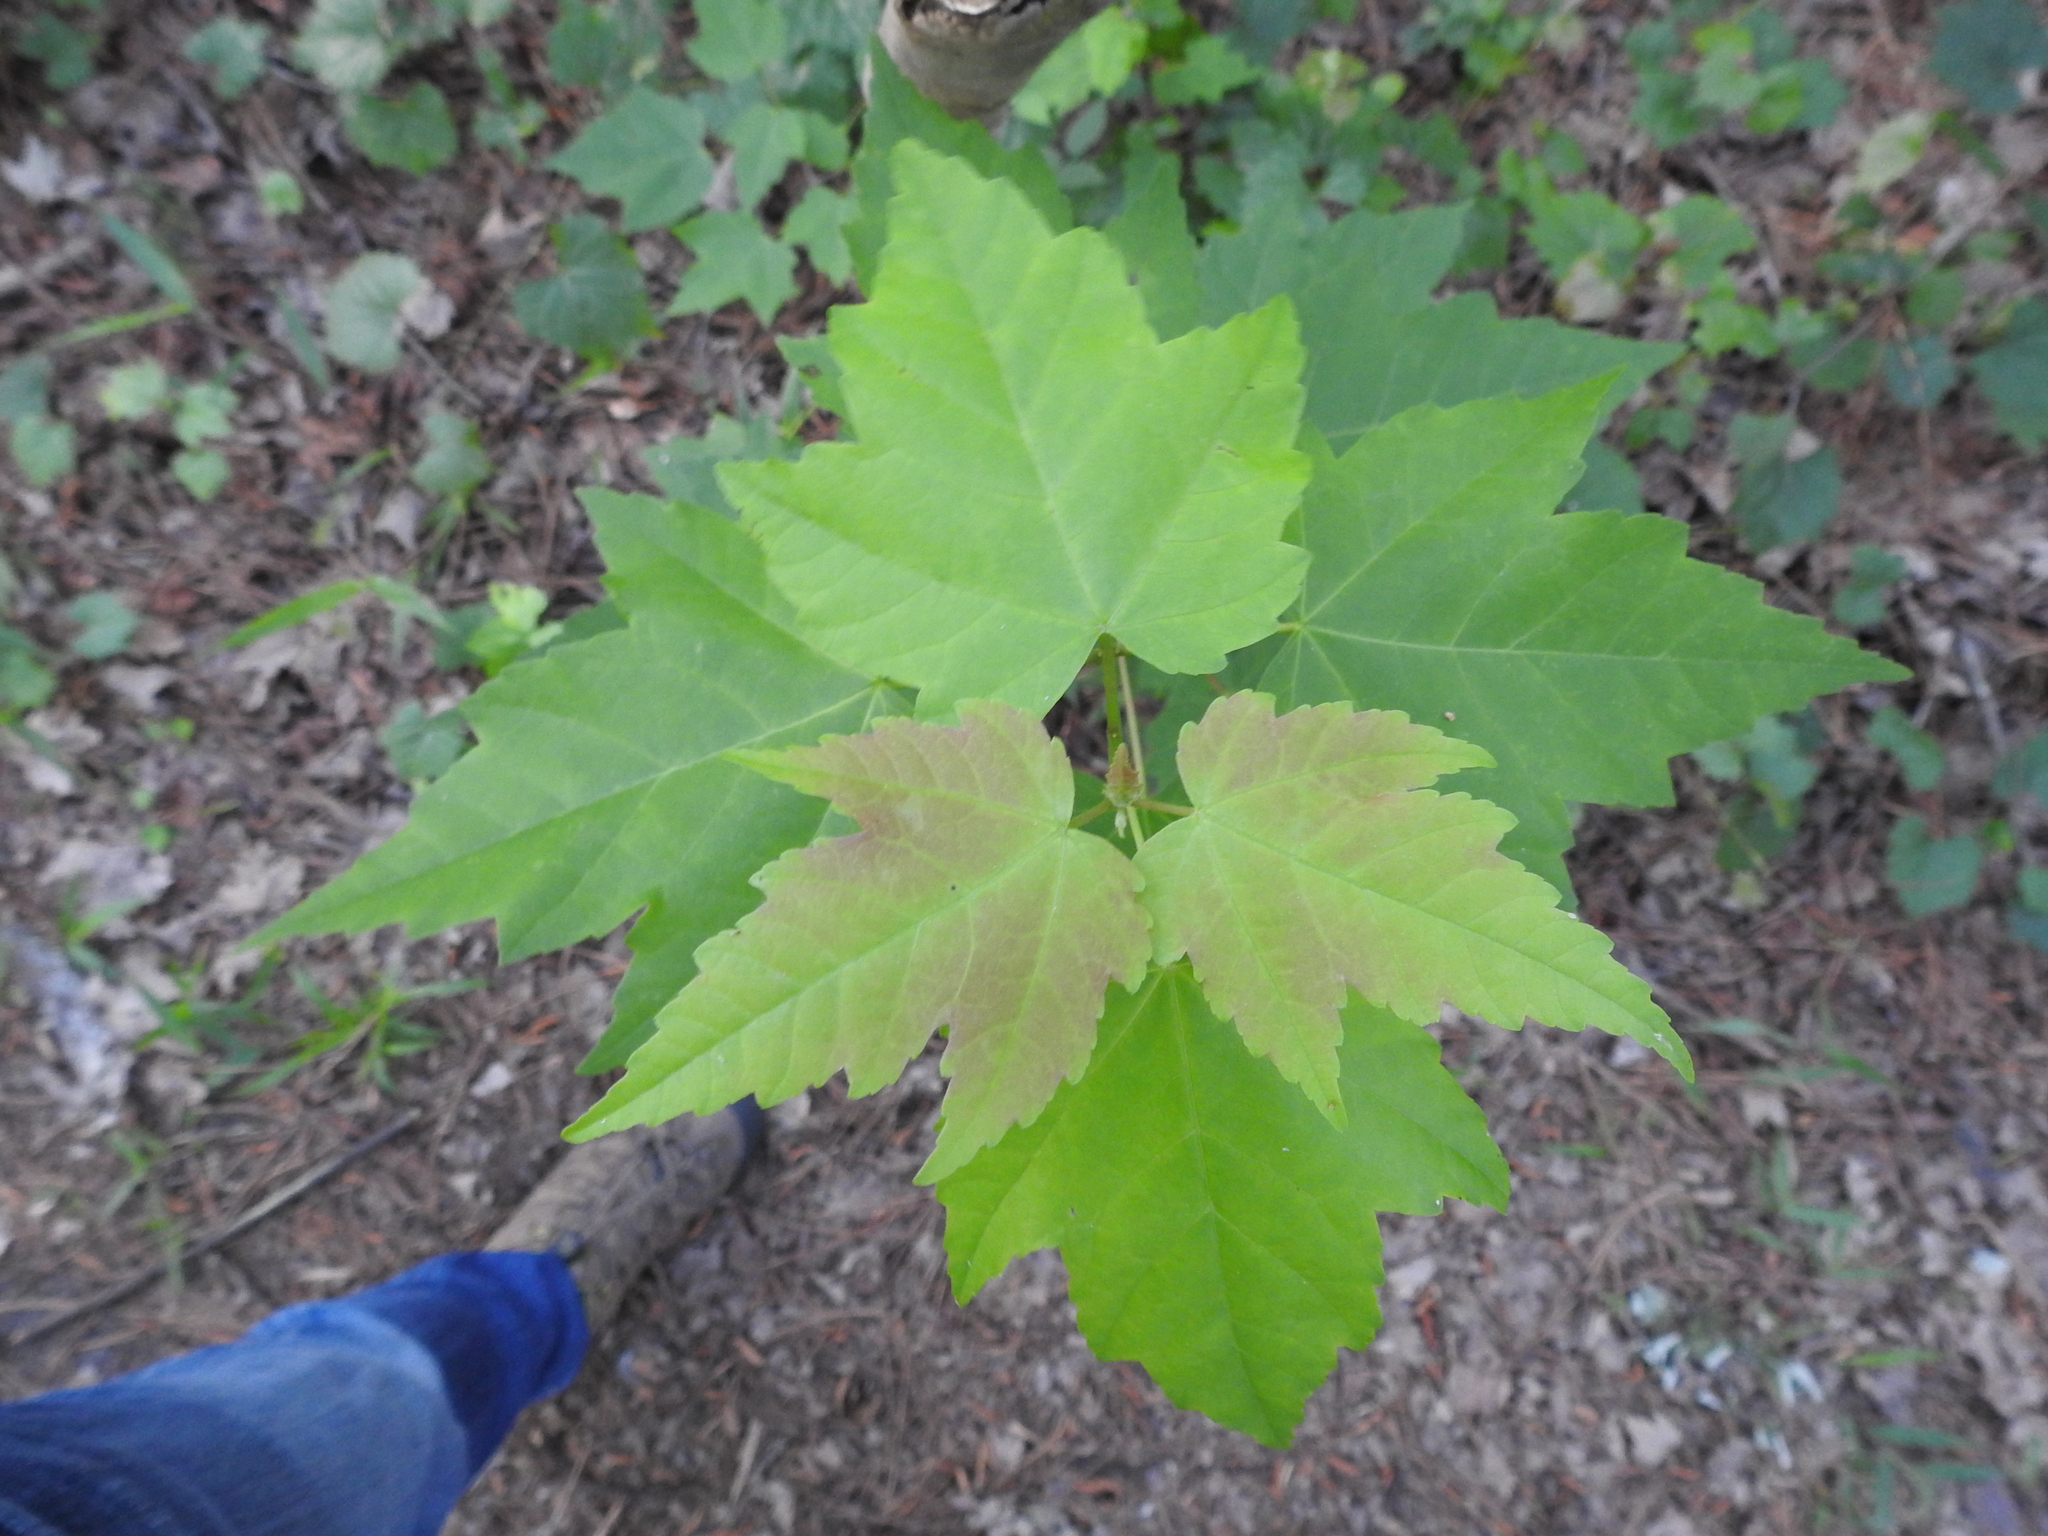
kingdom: Plantae
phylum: Tracheophyta
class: Magnoliopsida
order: Sapindales
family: Sapindaceae
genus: Acer
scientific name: Acer rubrum
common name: Red maple
